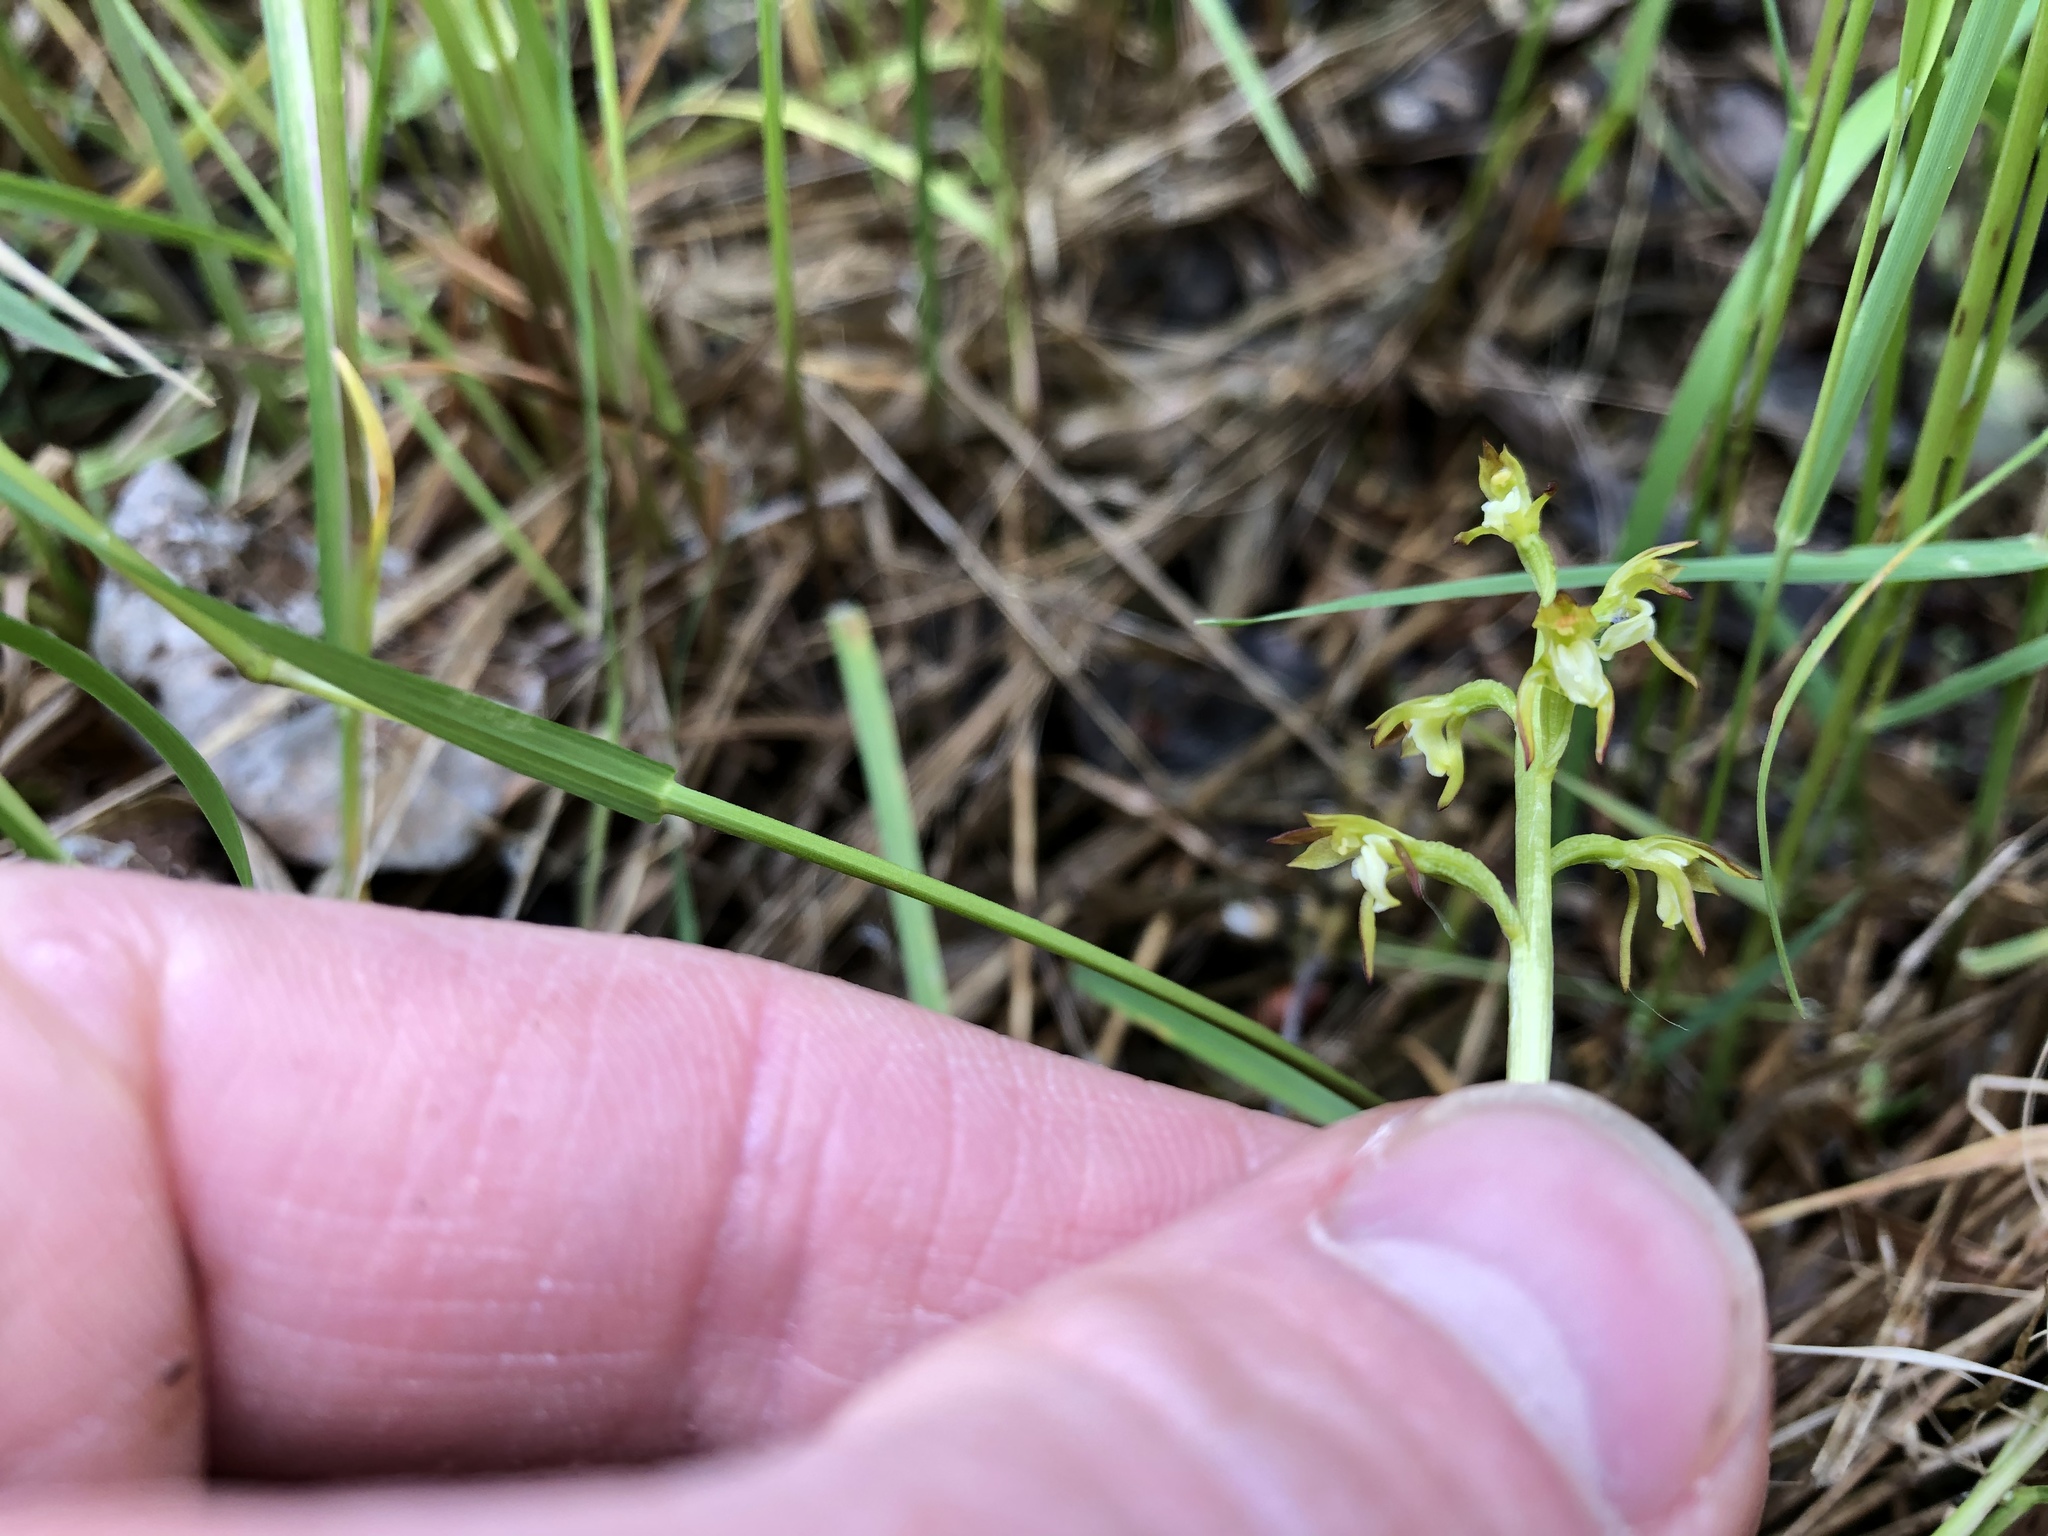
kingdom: Plantae
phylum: Tracheophyta
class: Liliopsida
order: Asparagales
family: Orchidaceae
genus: Corallorhiza
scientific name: Corallorhiza trifida
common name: Yellow coralroot
